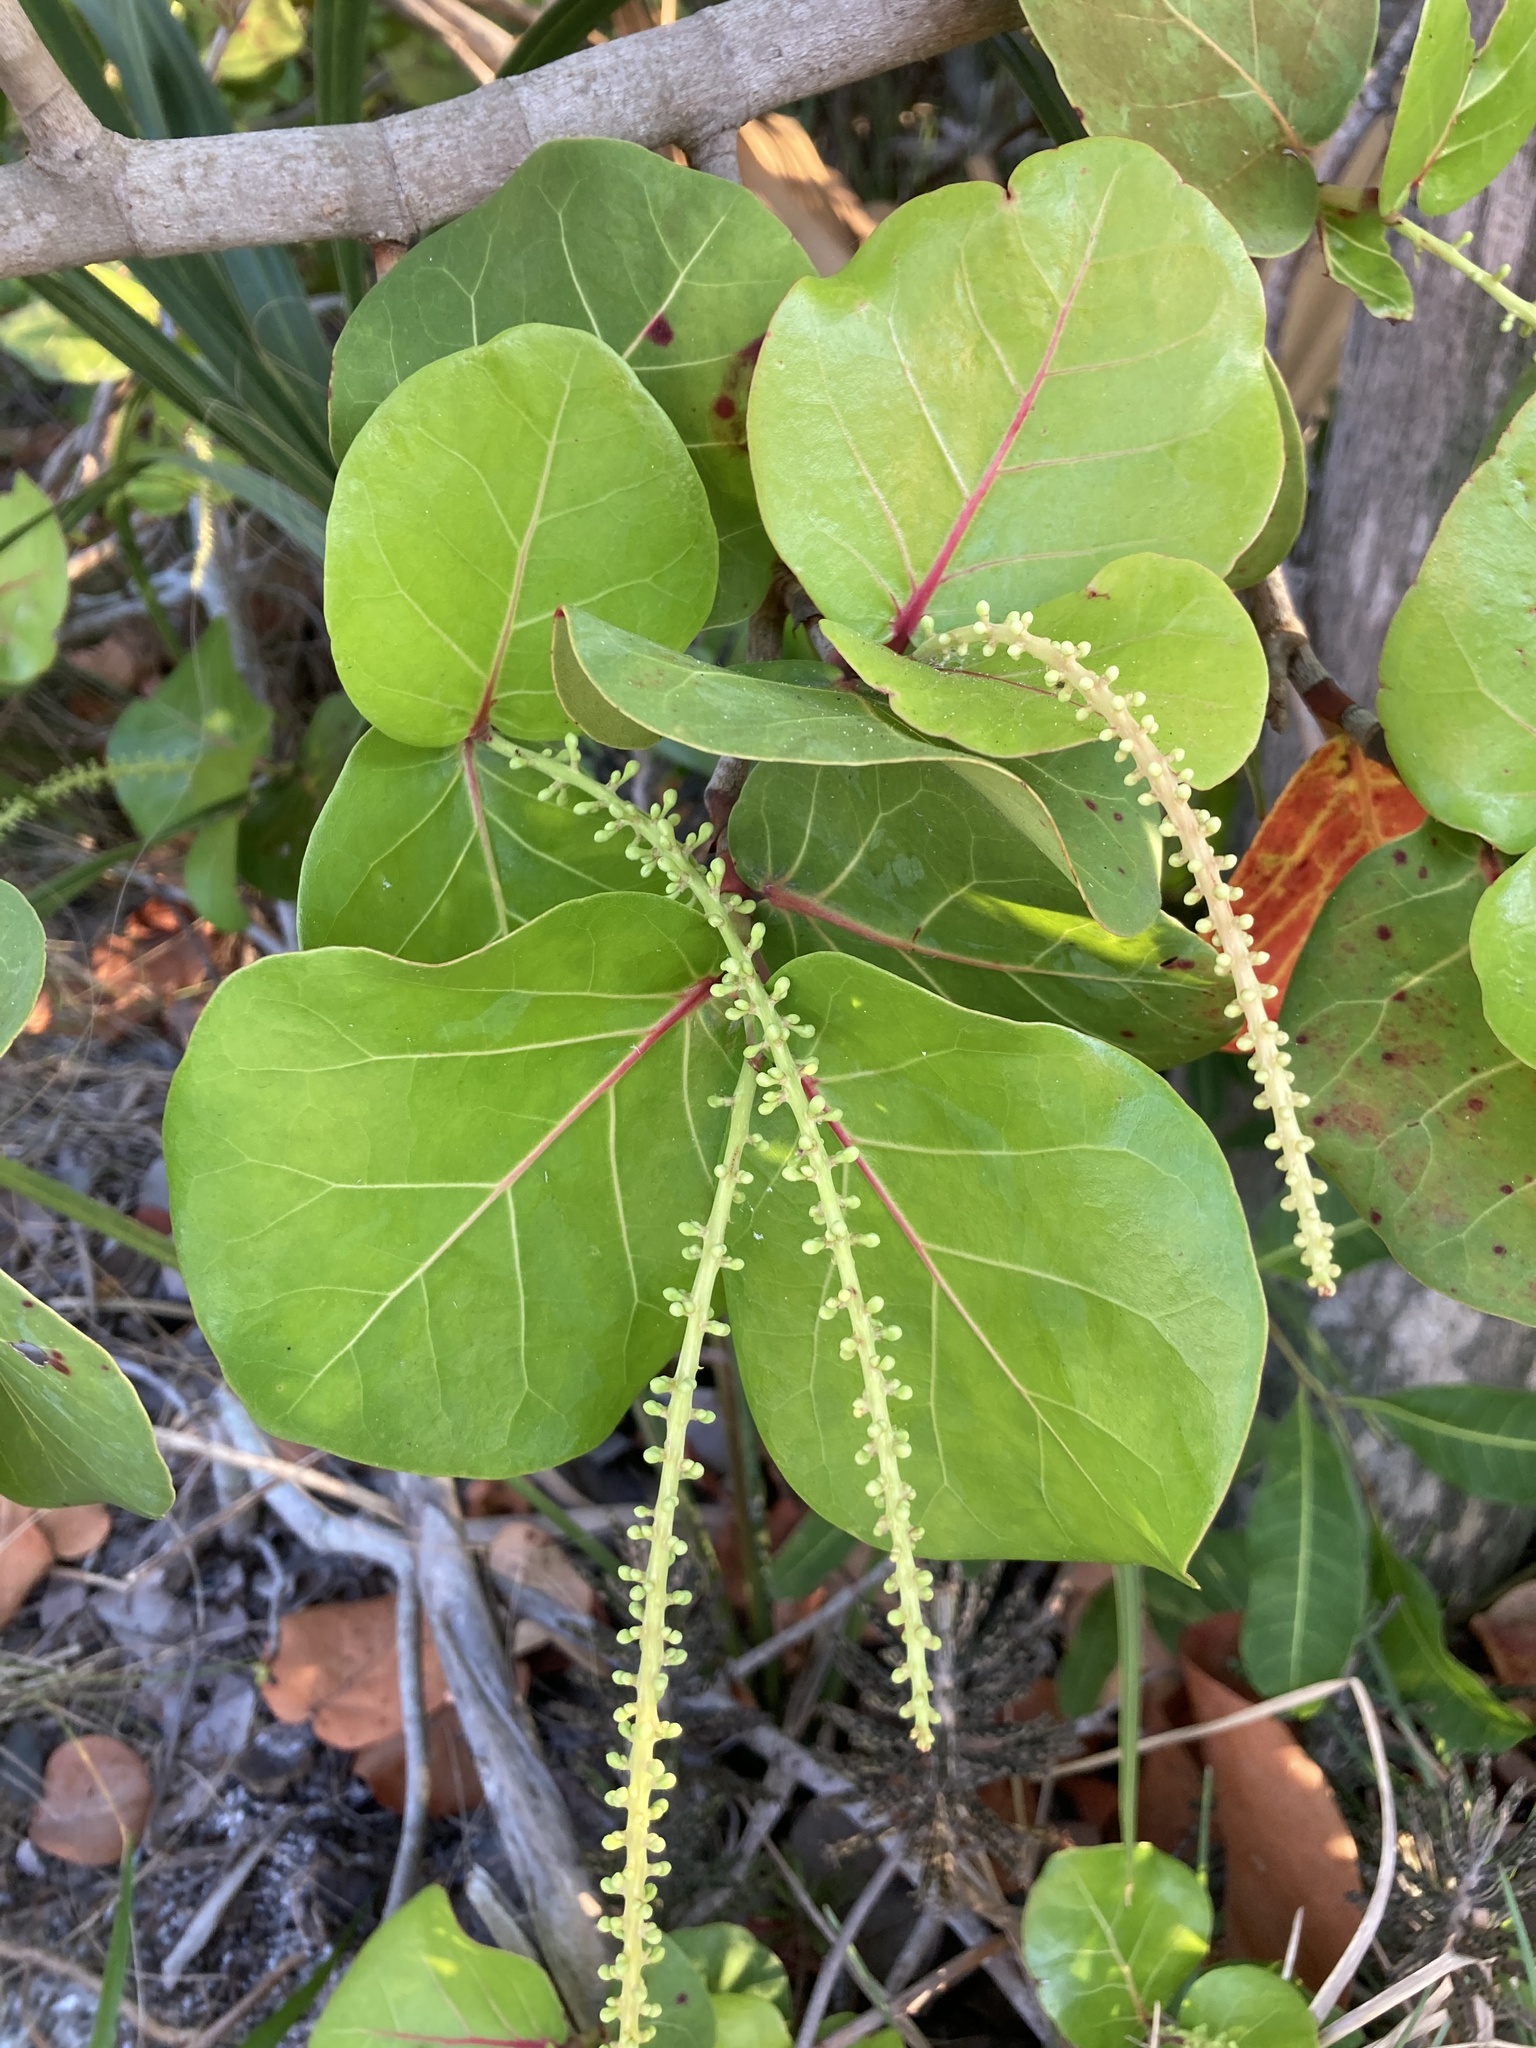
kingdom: Plantae
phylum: Tracheophyta
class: Magnoliopsida
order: Caryophyllales
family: Polygonaceae
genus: Coccoloba
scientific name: Coccoloba uvifera
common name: Seagrape
